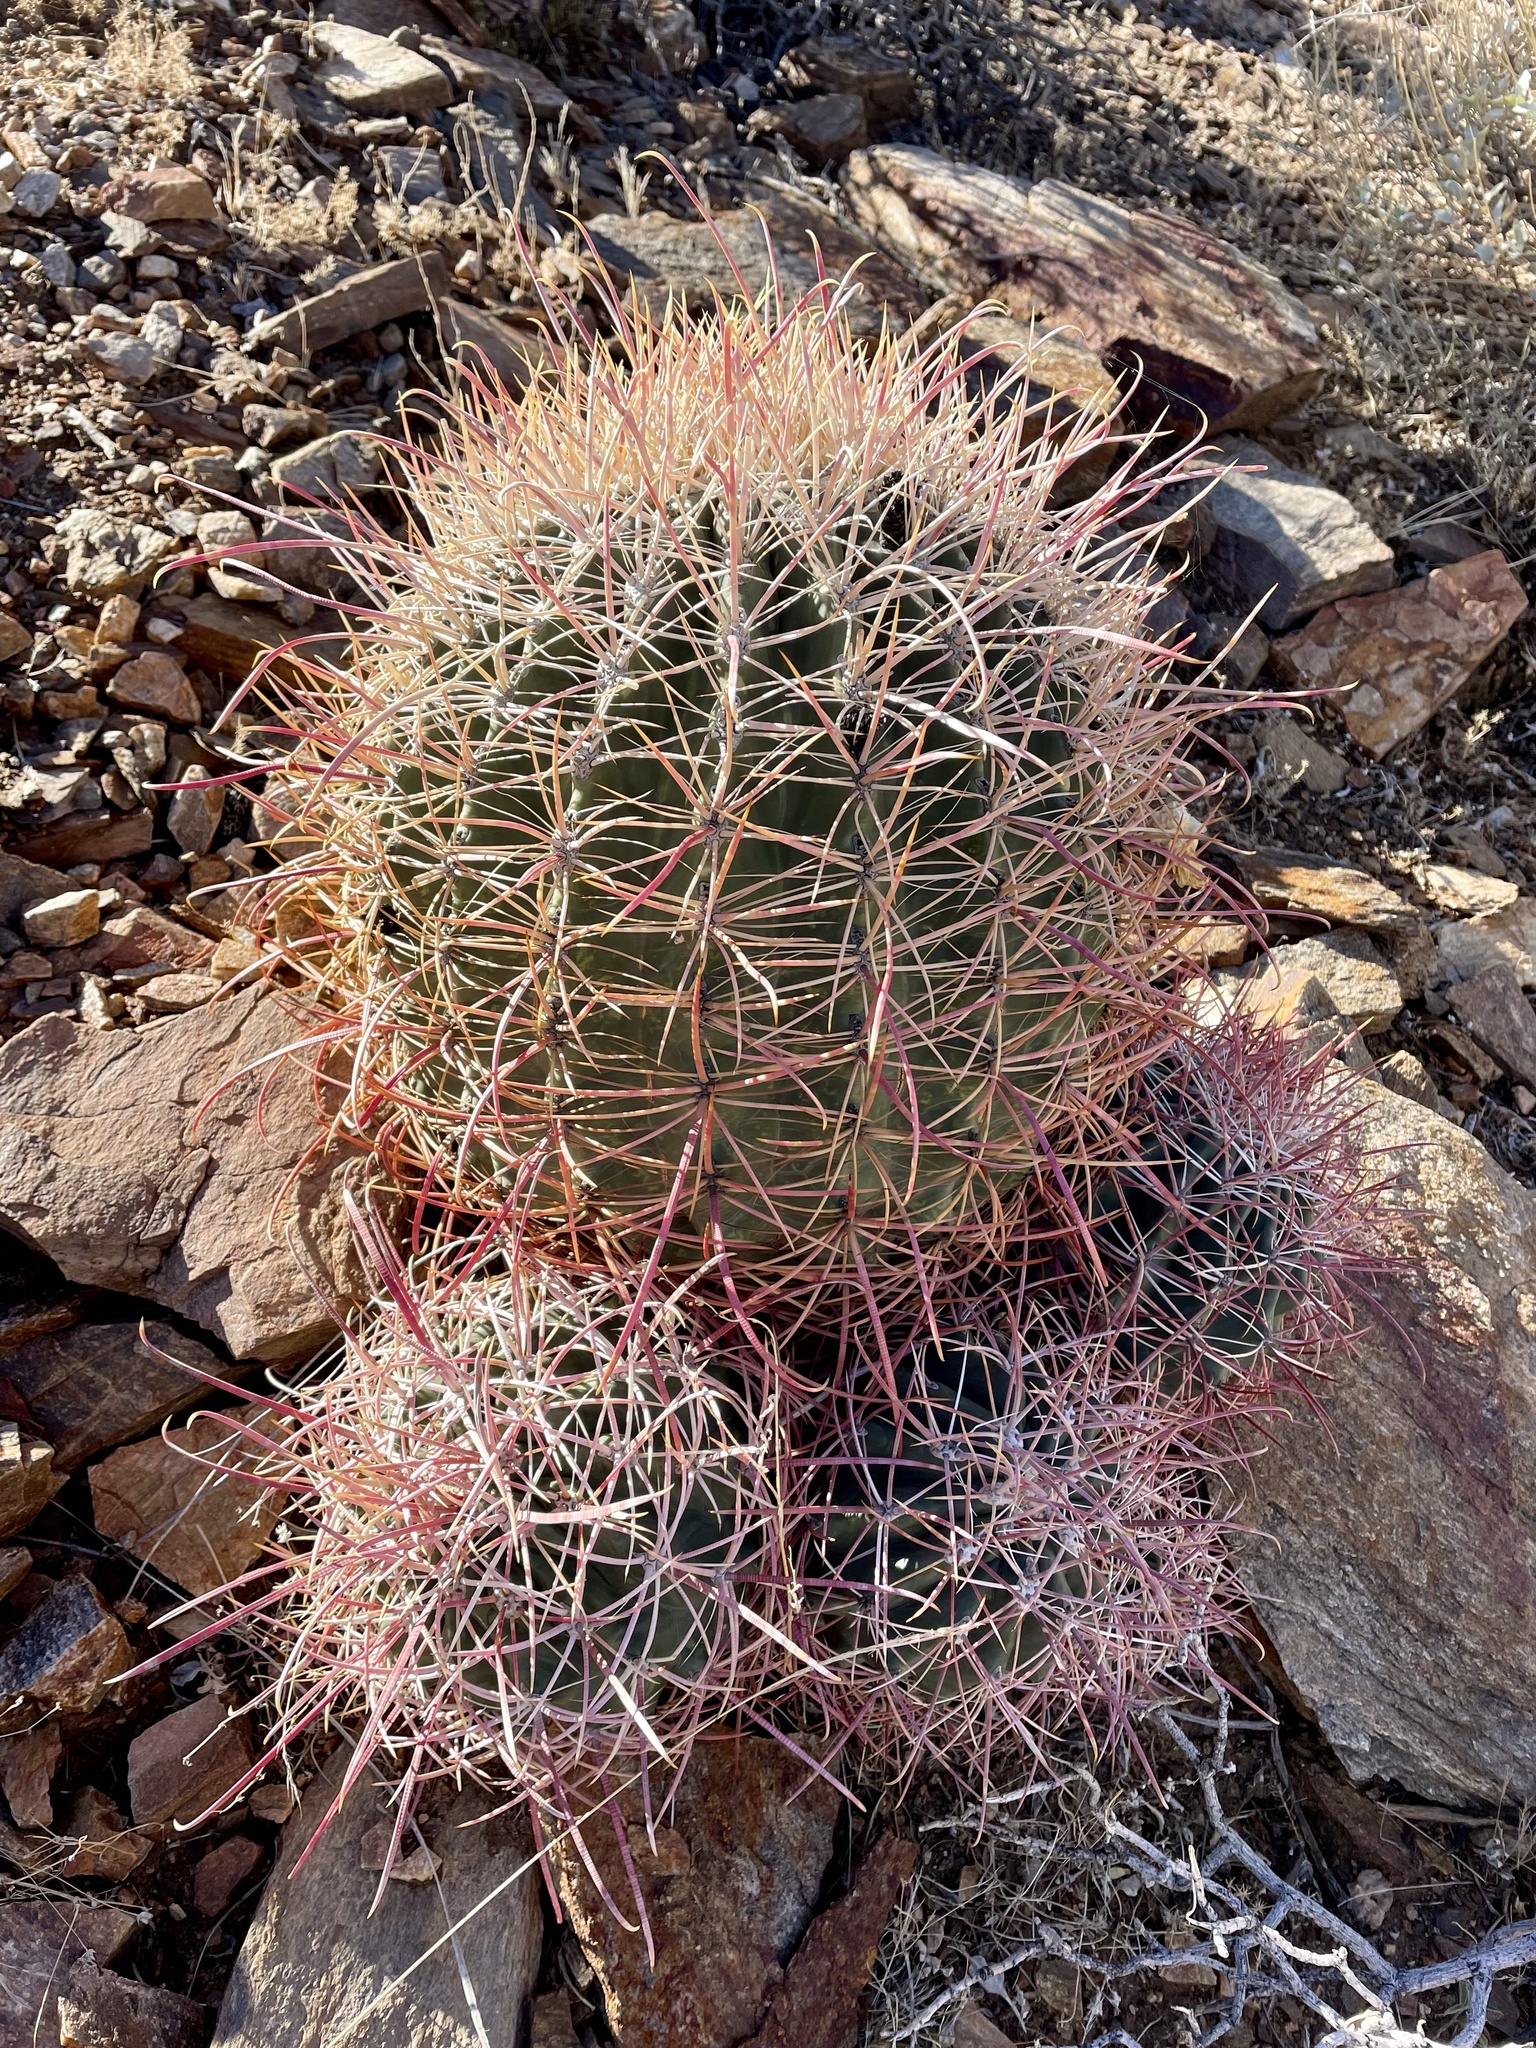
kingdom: Plantae
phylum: Tracheophyta
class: Magnoliopsida
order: Caryophyllales
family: Cactaceae
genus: Ferocactus
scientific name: Ferocactus cylindraceus
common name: California barrel cactus
